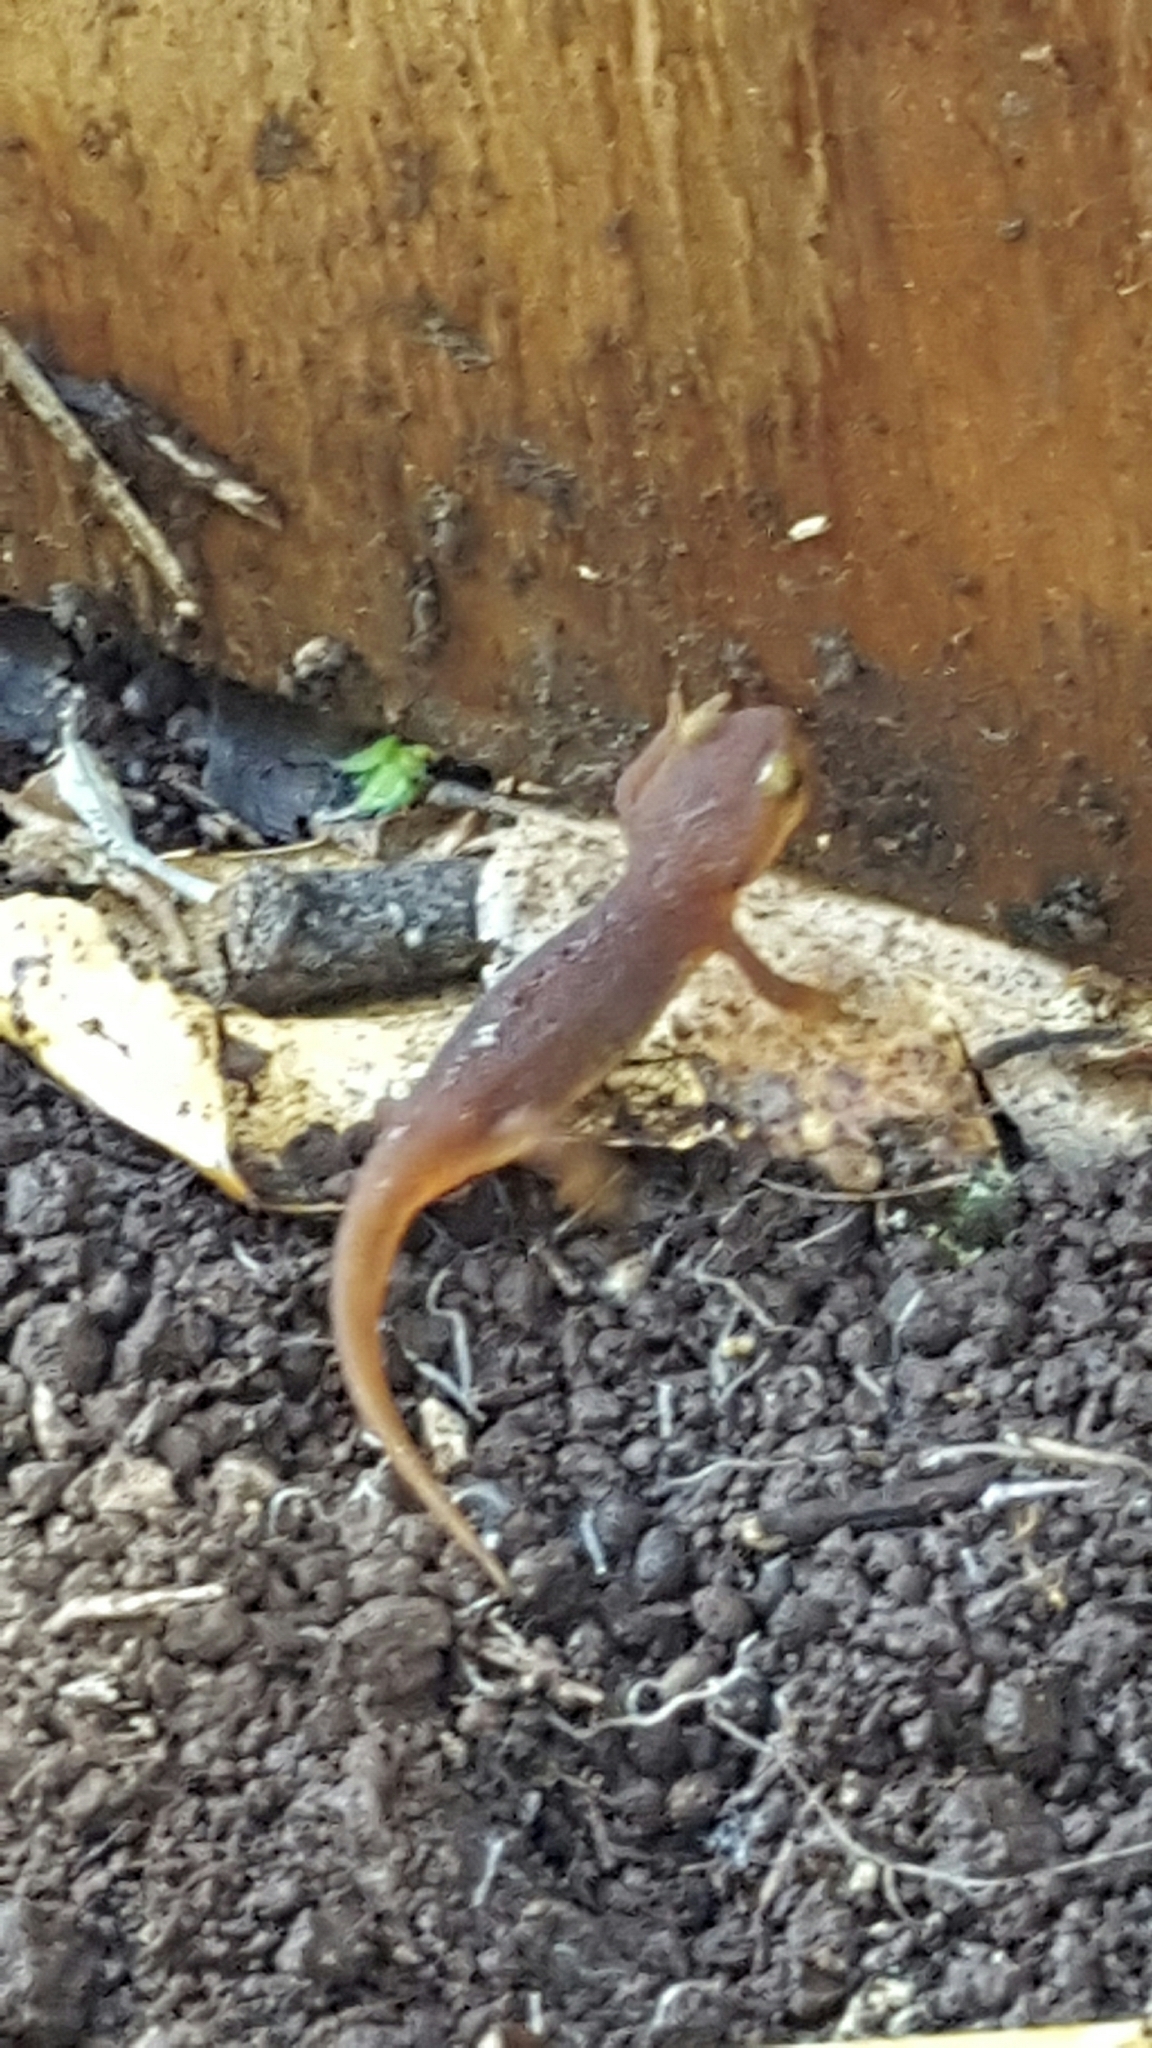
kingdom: Animalia
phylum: Chordata
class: Amphibia
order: Caudata
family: Salamandridae
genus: Taricha
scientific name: Taricha torosa
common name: California newt
